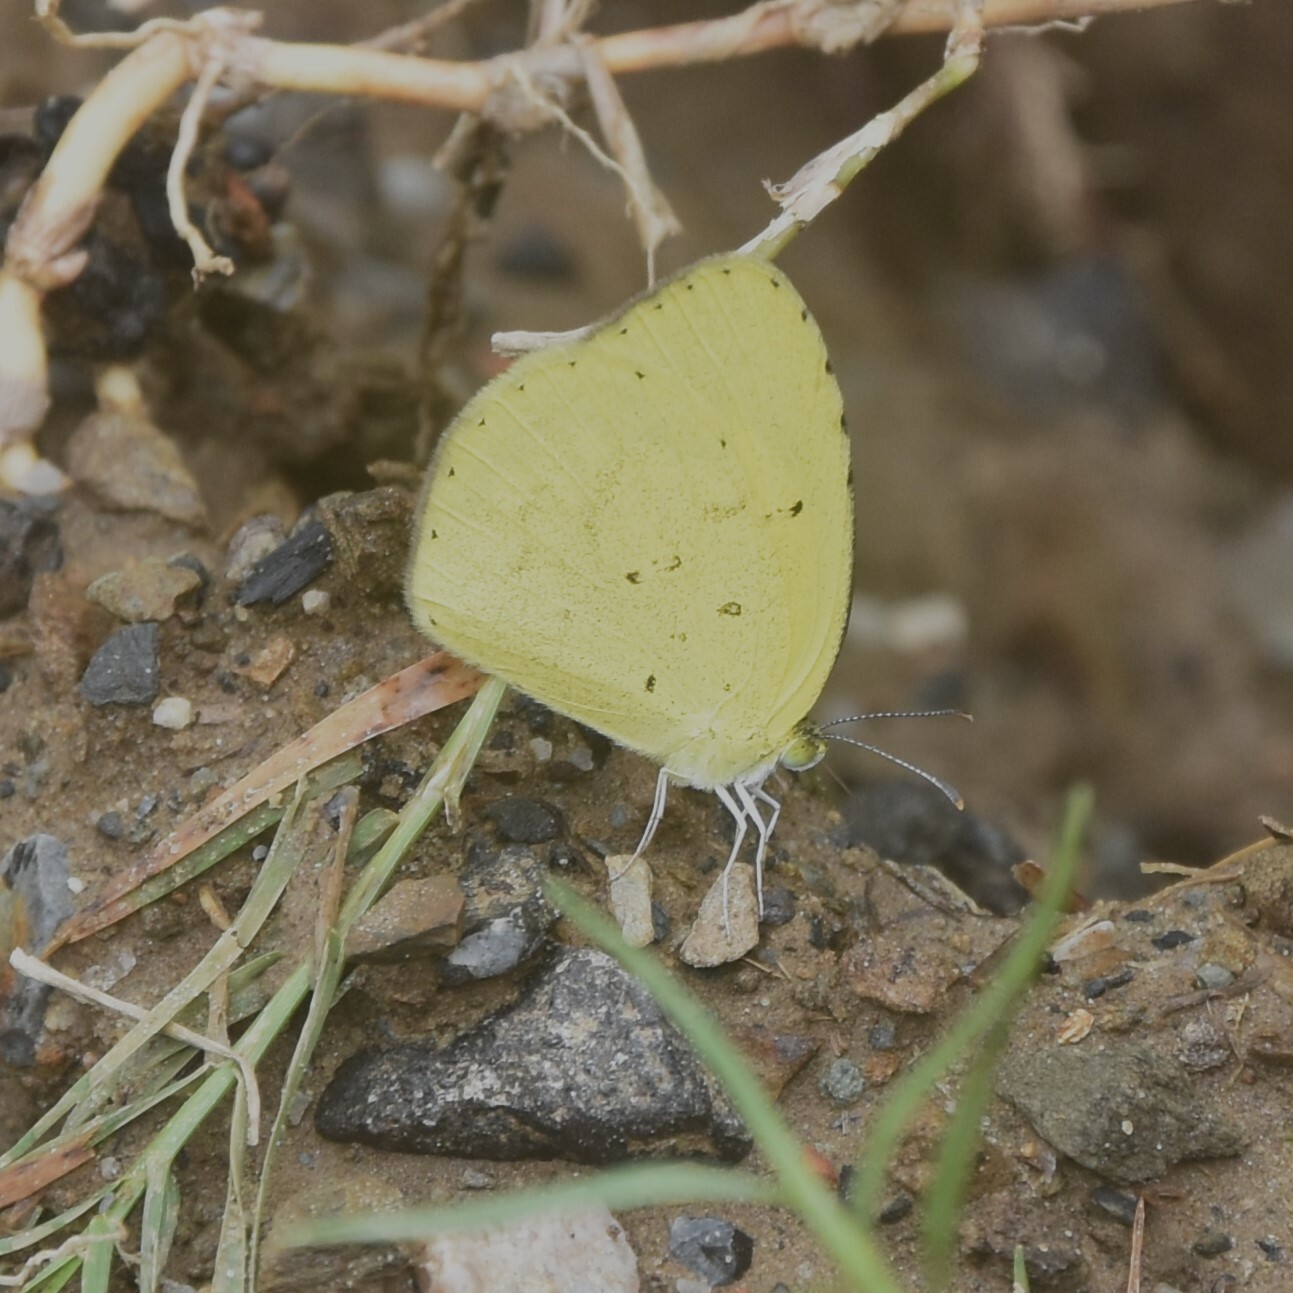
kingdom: Animalia
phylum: Arthropoda
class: Insecta
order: Lepidoptera
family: Pieridae
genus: Eurema
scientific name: Eurema brigitta
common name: Small grass yellow
